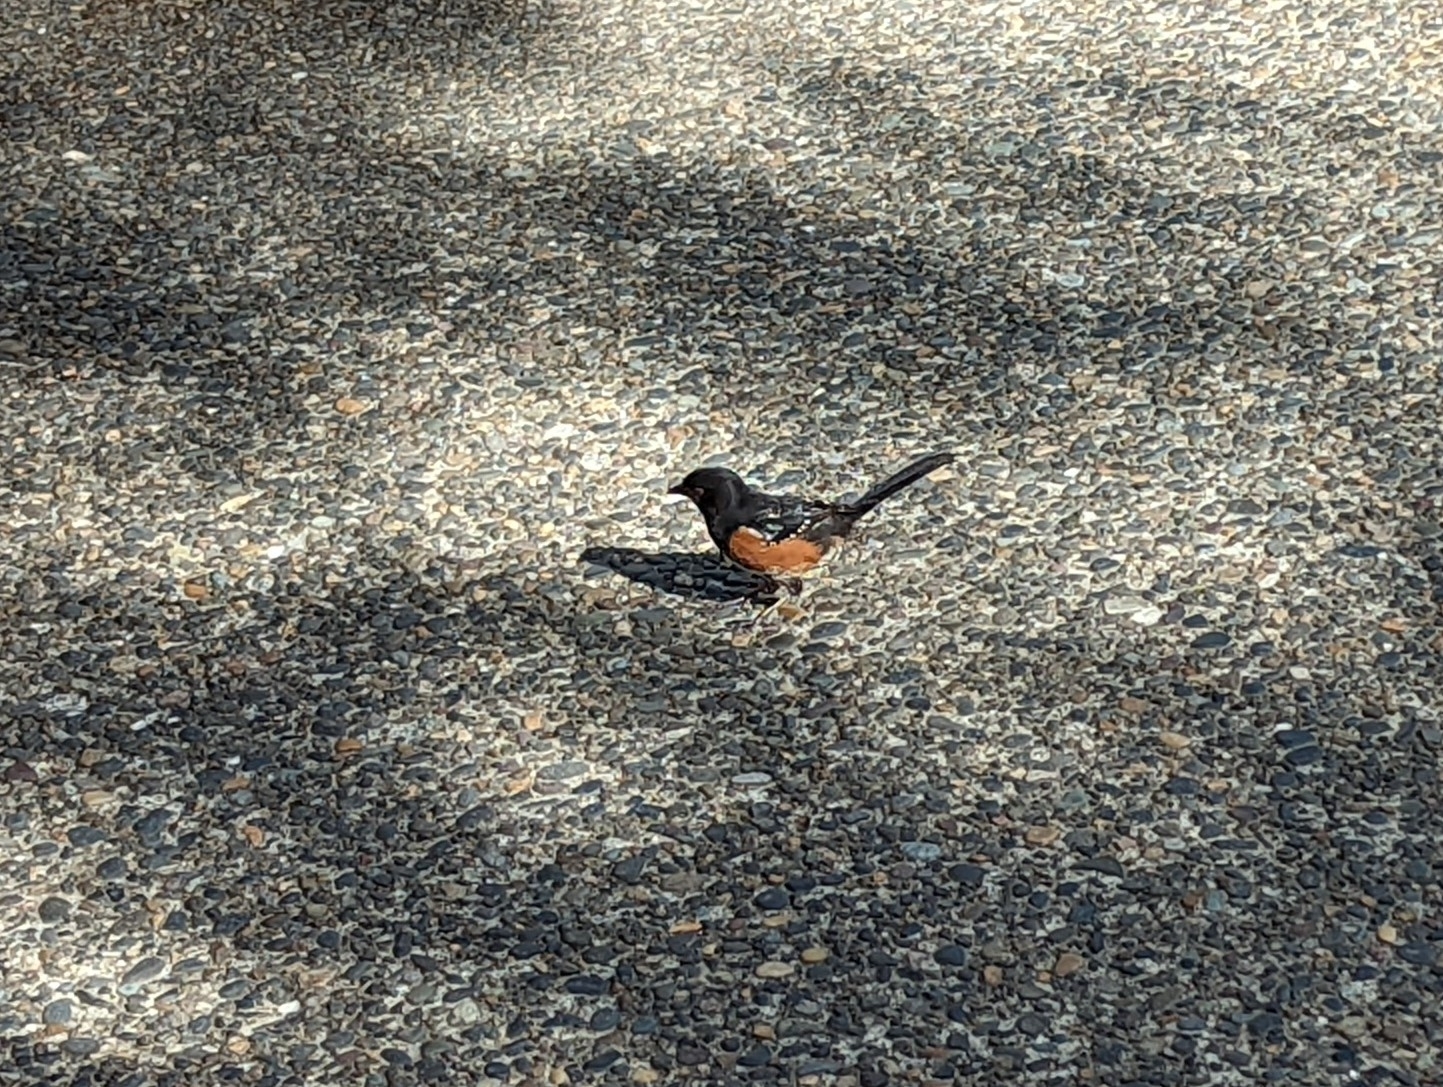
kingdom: Animalia
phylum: Chordata
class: Aves
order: Passeriformes
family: Passerellidae
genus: Pipilo
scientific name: Pipilo maculatus
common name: Spotted towhee
